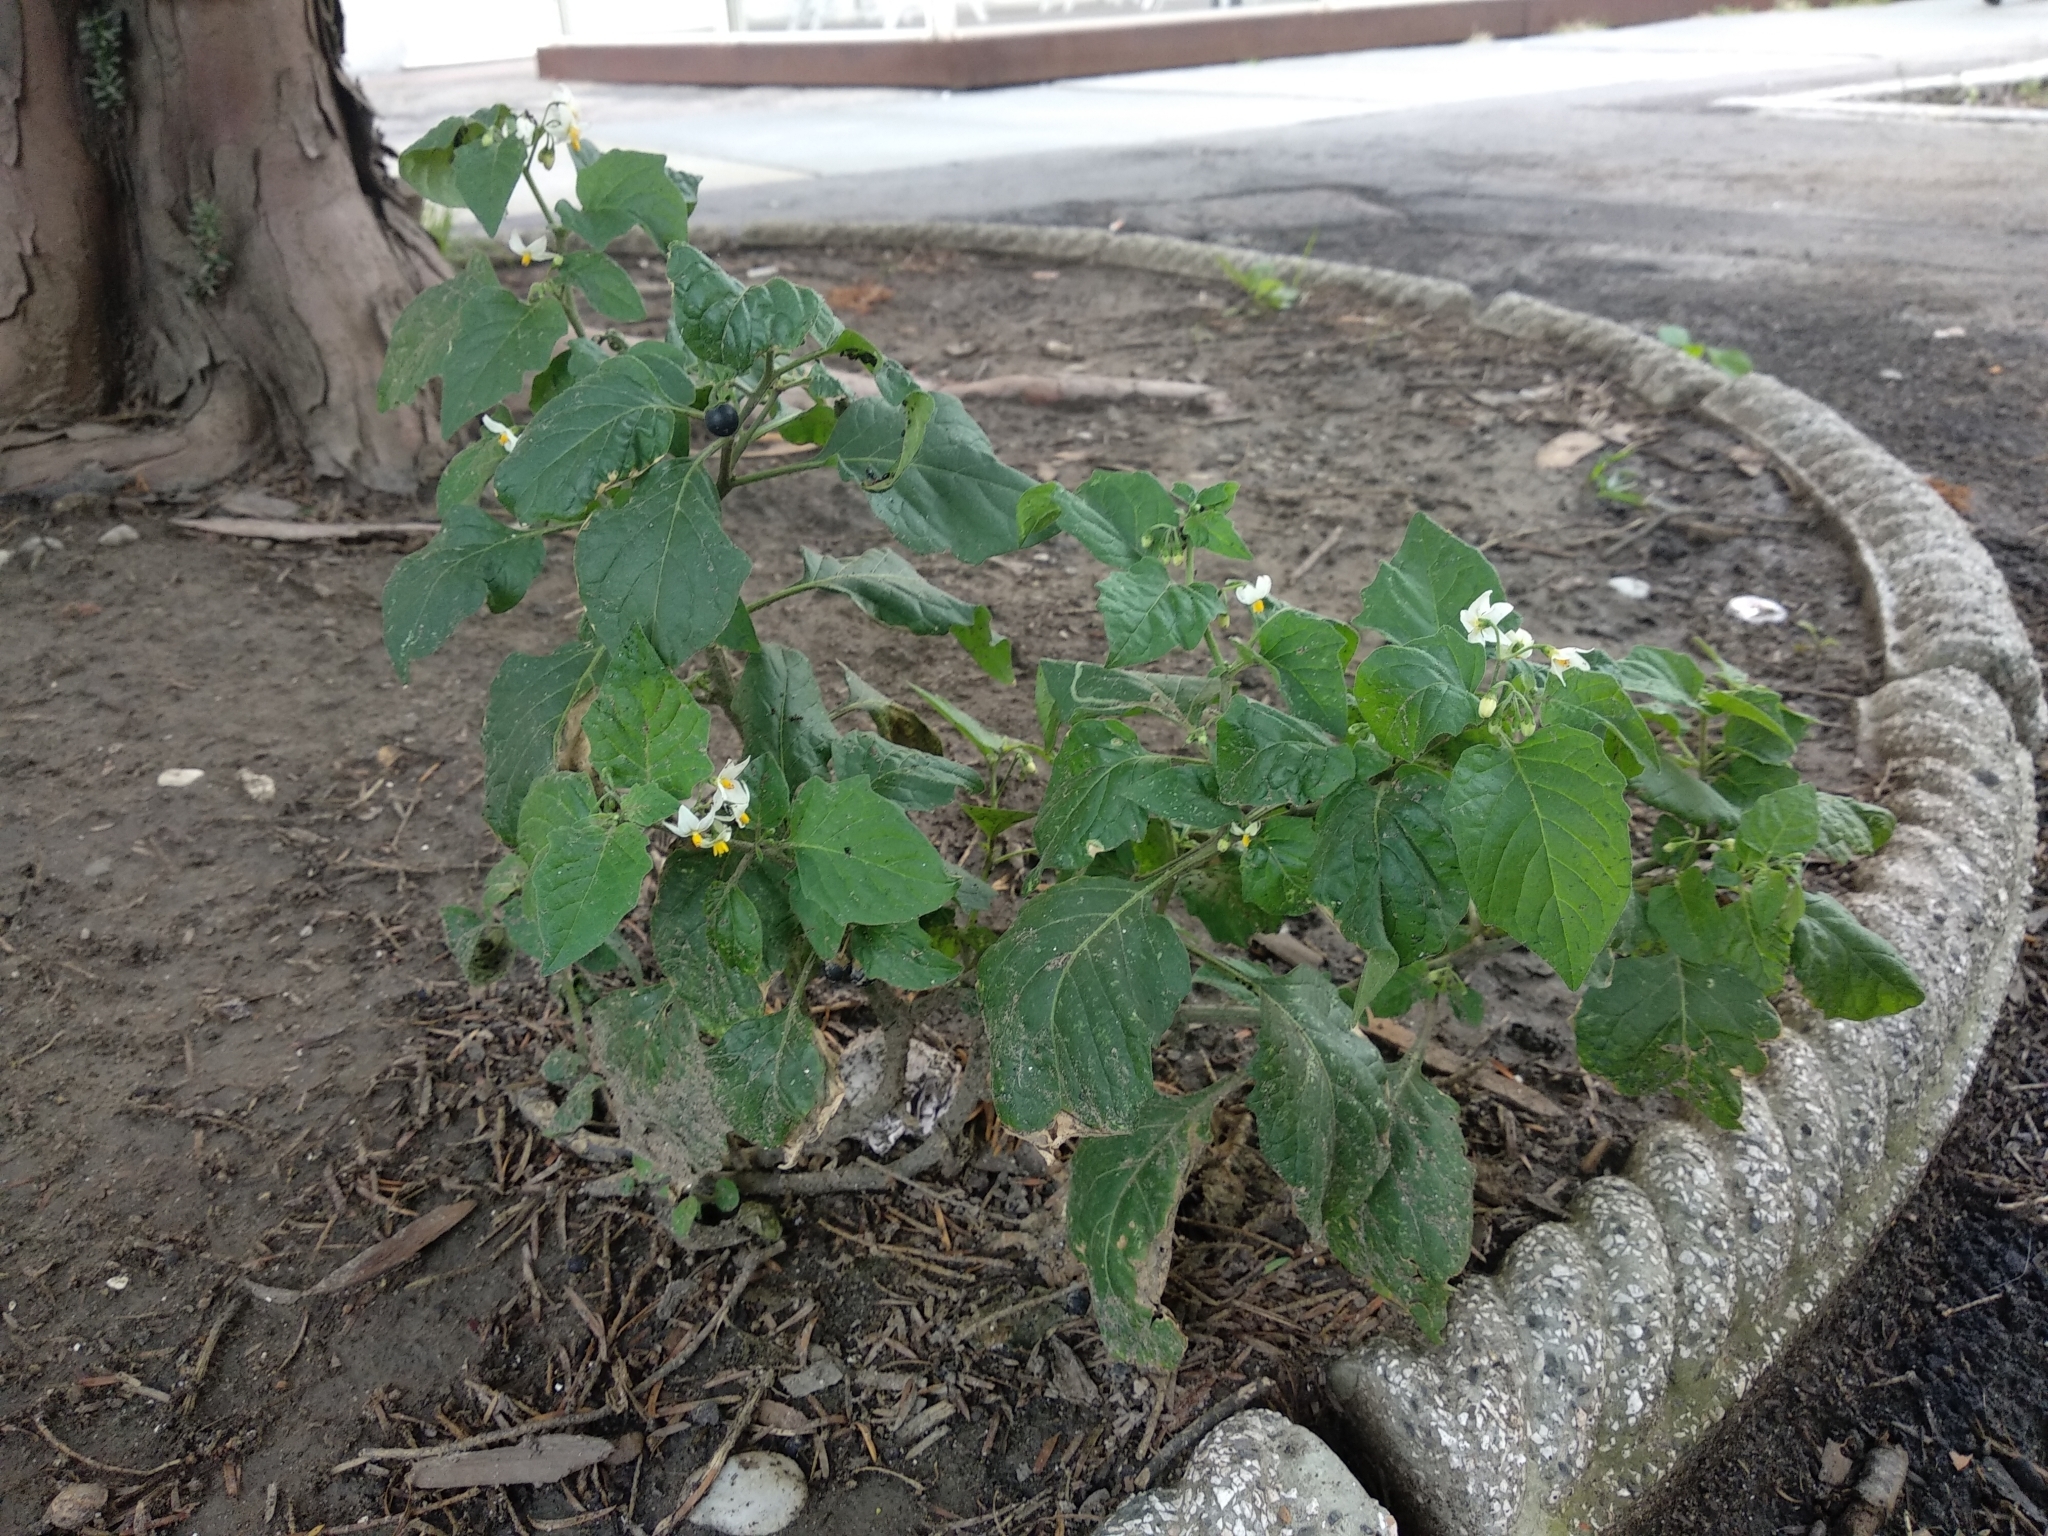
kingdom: Plantae
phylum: Tracheophyta
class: Magnoliopsida
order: Solanales
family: Solanaceae
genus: Solanum
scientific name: Solanum nigrum
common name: Black nightshade
